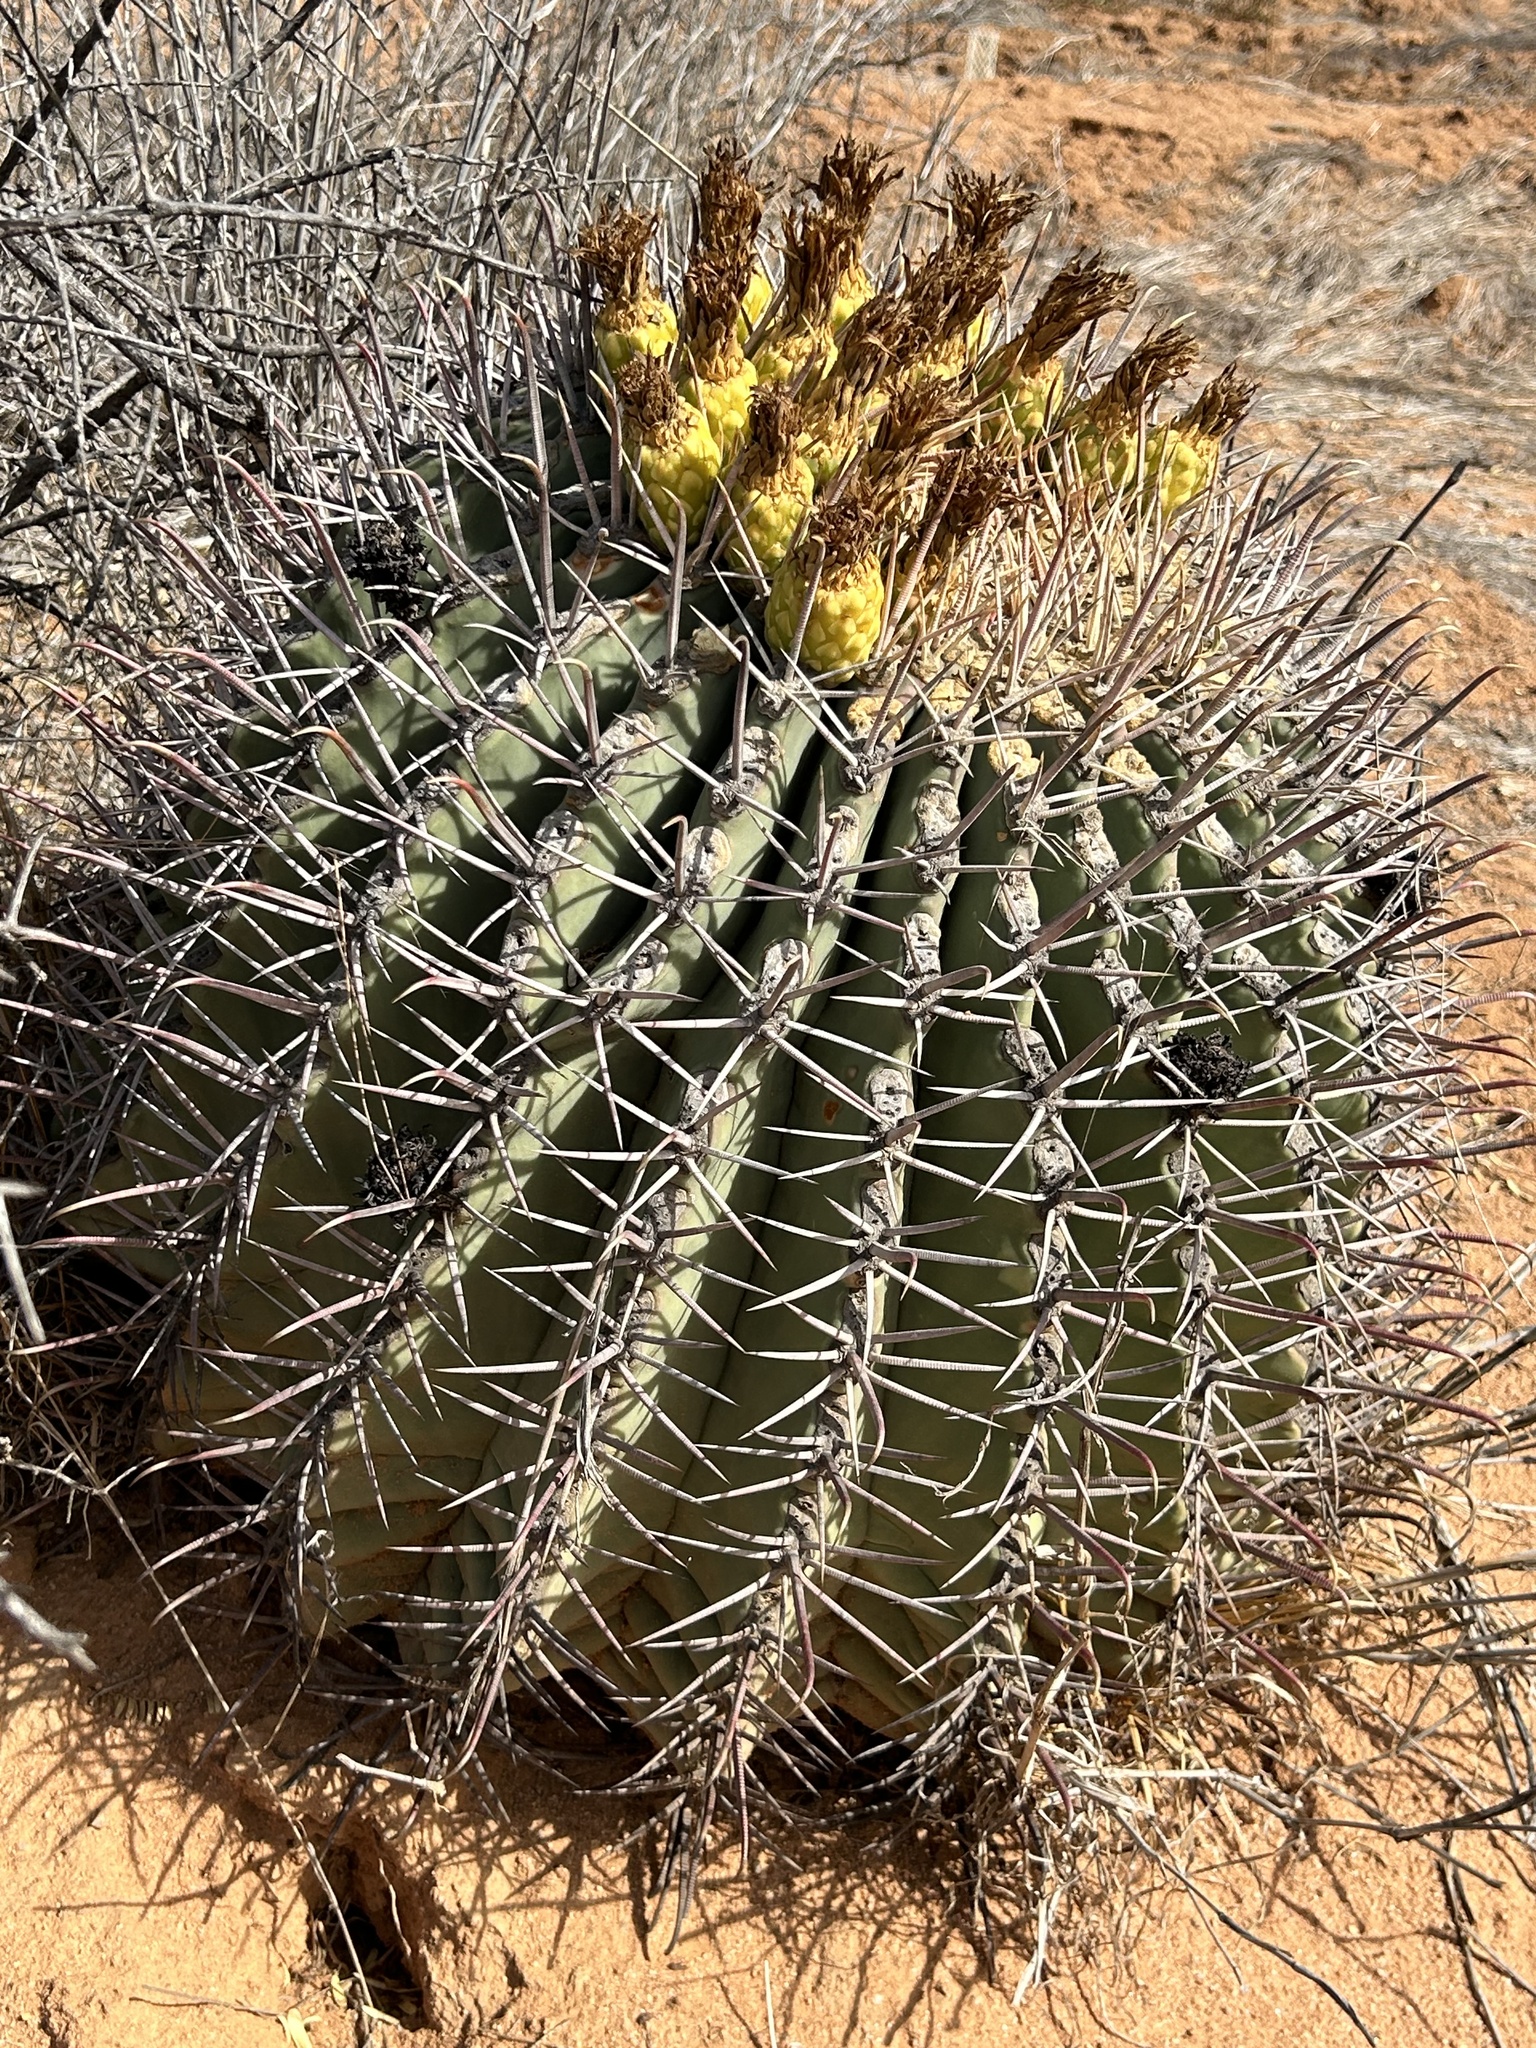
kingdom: Plantae
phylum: Tracheophyta
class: Magnoliopsida
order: Caryophyllales
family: Cactaceae
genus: Ferocactus
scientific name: Ferocactus emoryi
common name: Emory's barrel cactus
